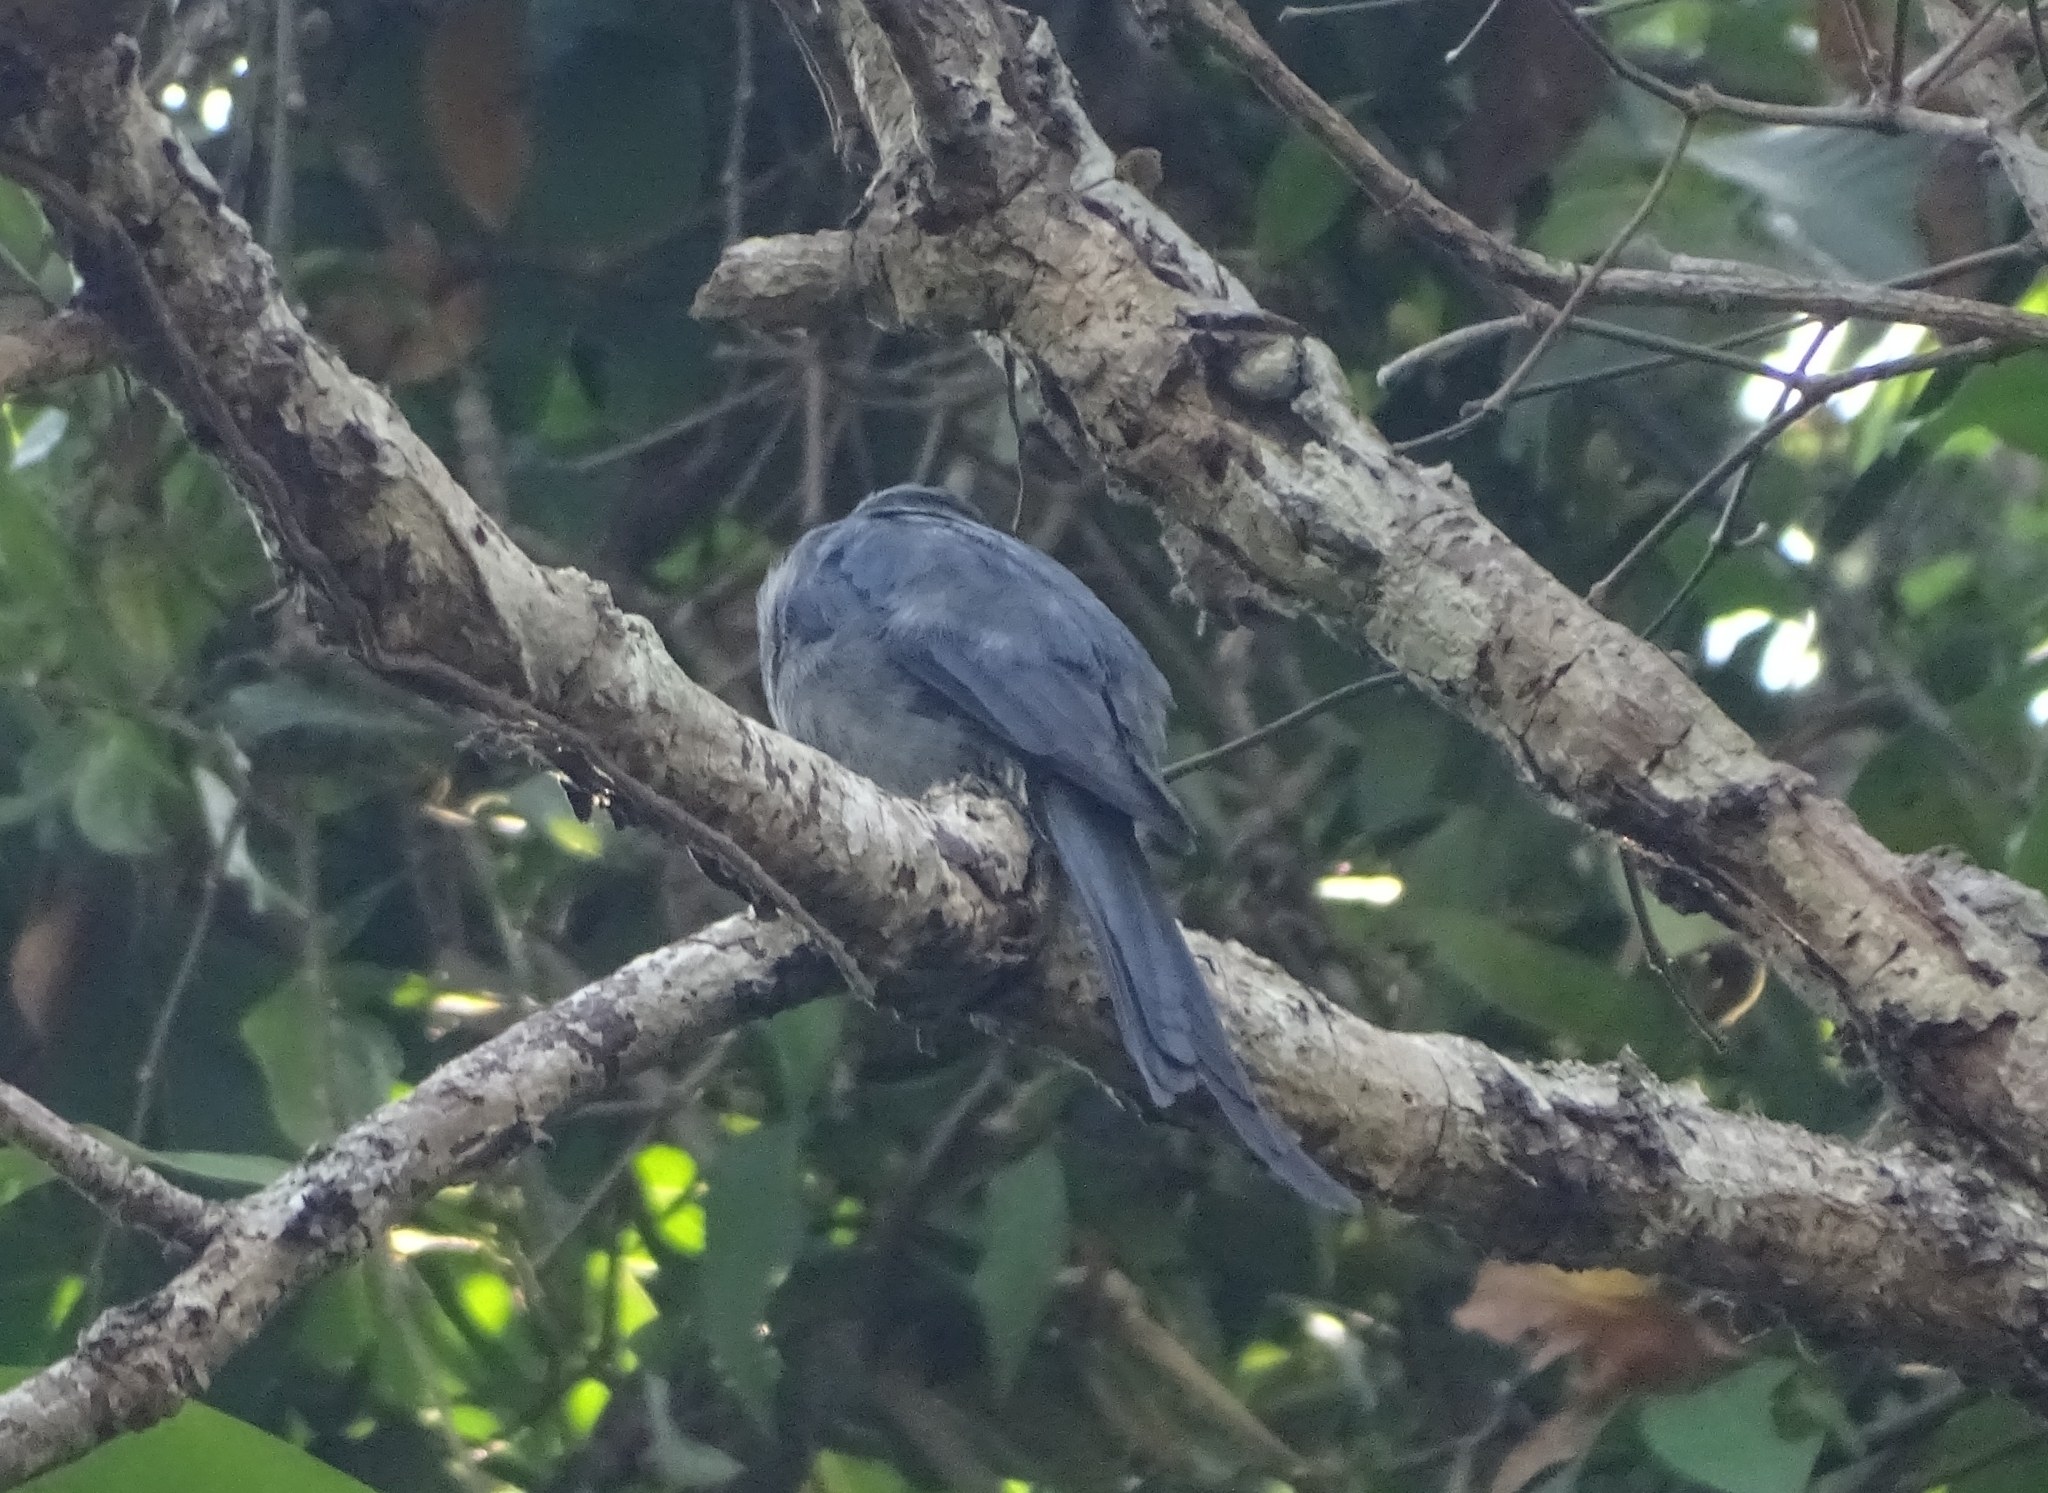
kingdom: Animalia
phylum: Chordata
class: Aves
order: Passeriformes
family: Dicruridae
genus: Dicrurus
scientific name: Dicrurus leucophaeus
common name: Ashy drongo
